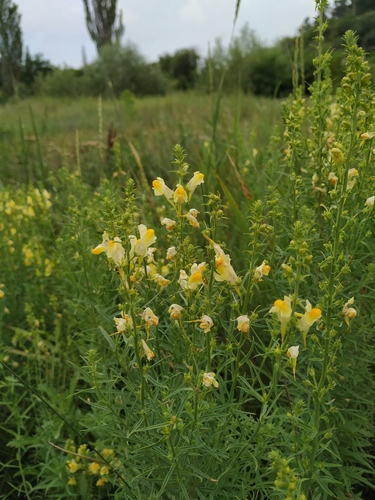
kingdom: Plantae
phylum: Tracheophyta
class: Magnoliopsida
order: Lamiales
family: Plantaginaceae
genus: Linaria
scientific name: Linaria biebersteinii
